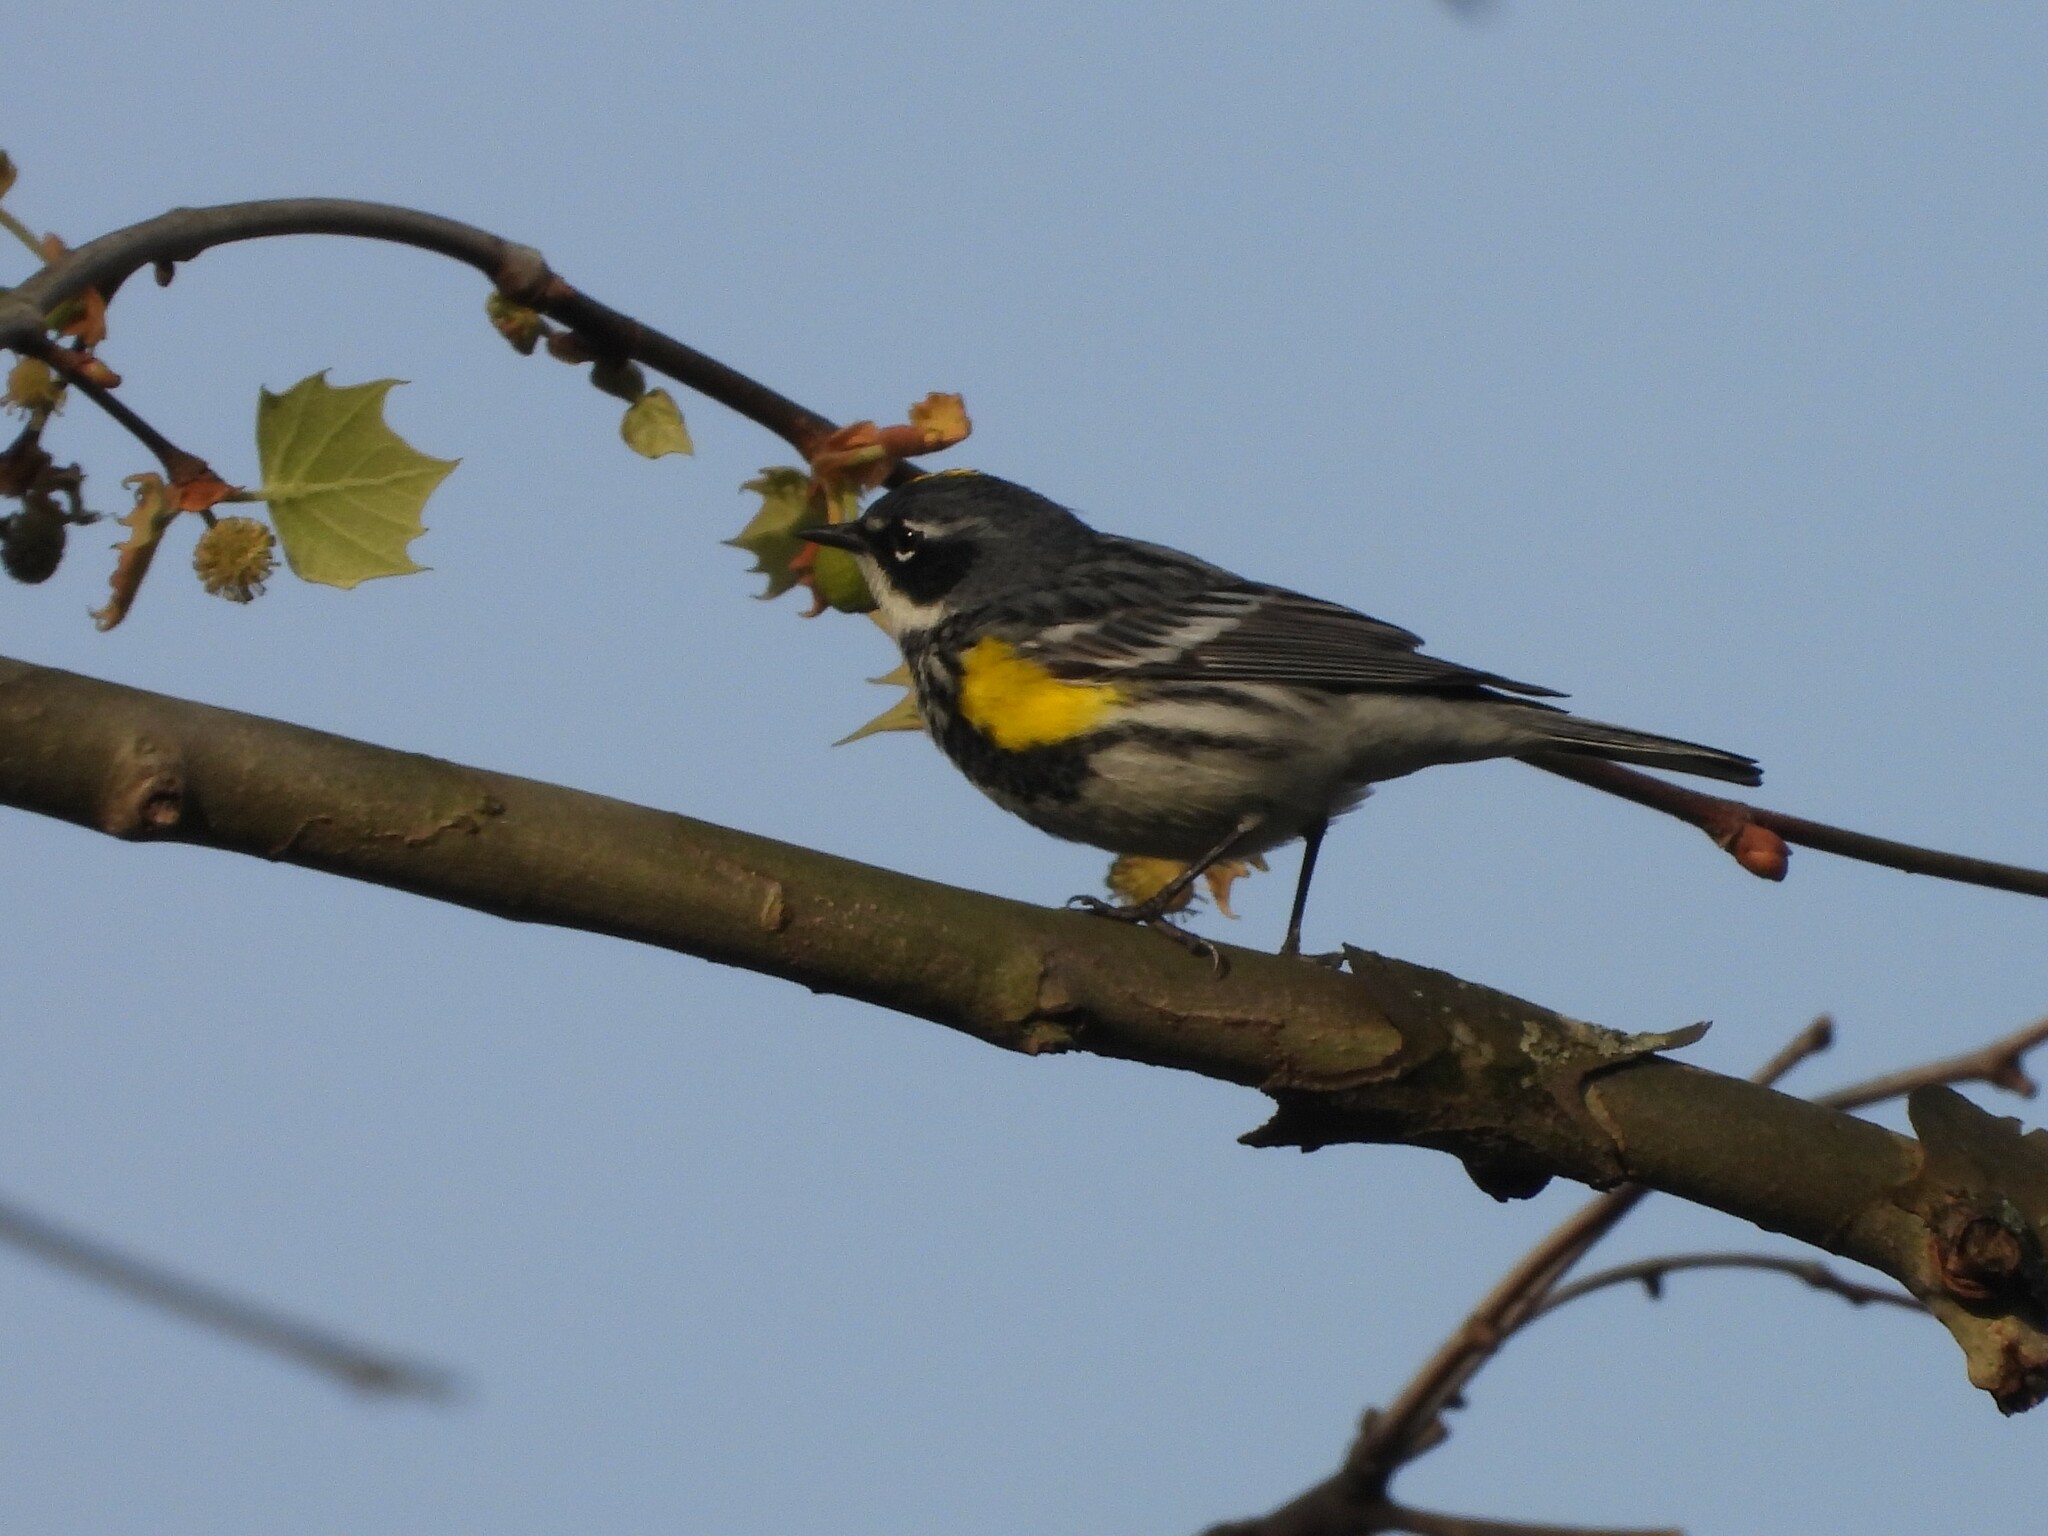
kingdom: Animalia
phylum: Chordata
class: Aves
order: Passeriformes
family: Parulidae
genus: Setophaga
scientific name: Setophaga coronata
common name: Myrtle warbler
